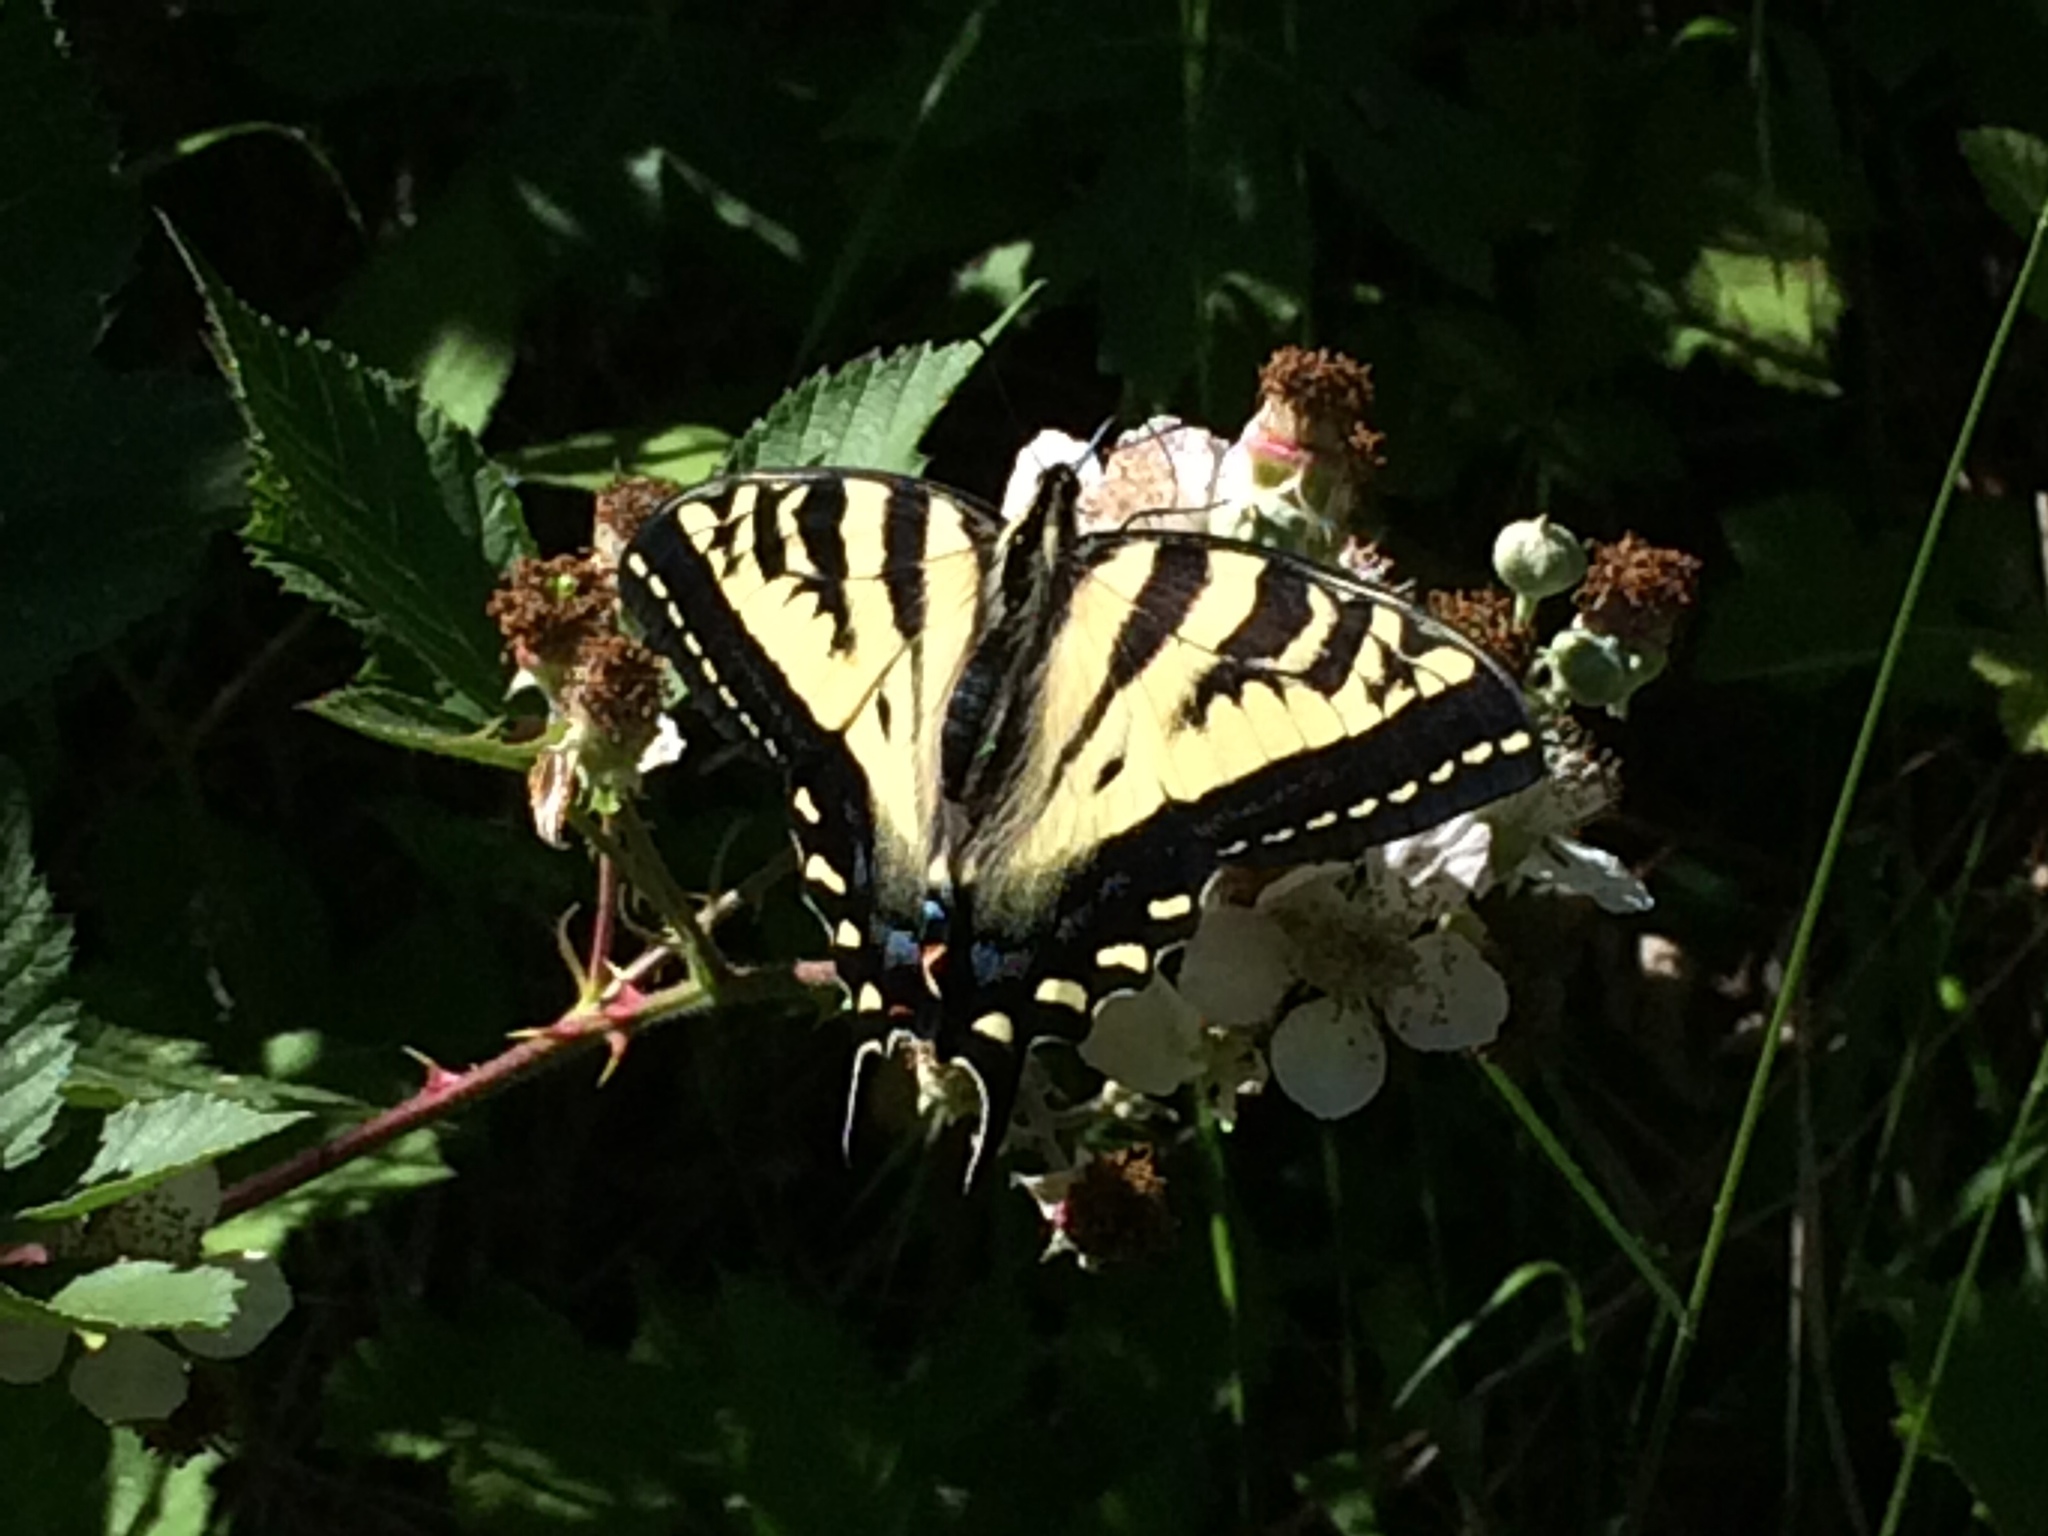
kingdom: Animalia
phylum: Arthropoda
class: Insecta
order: Lepidoptera
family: Papilionidae
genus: Papilio
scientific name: Papilio rutulus
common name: Western tiger swallowtail
